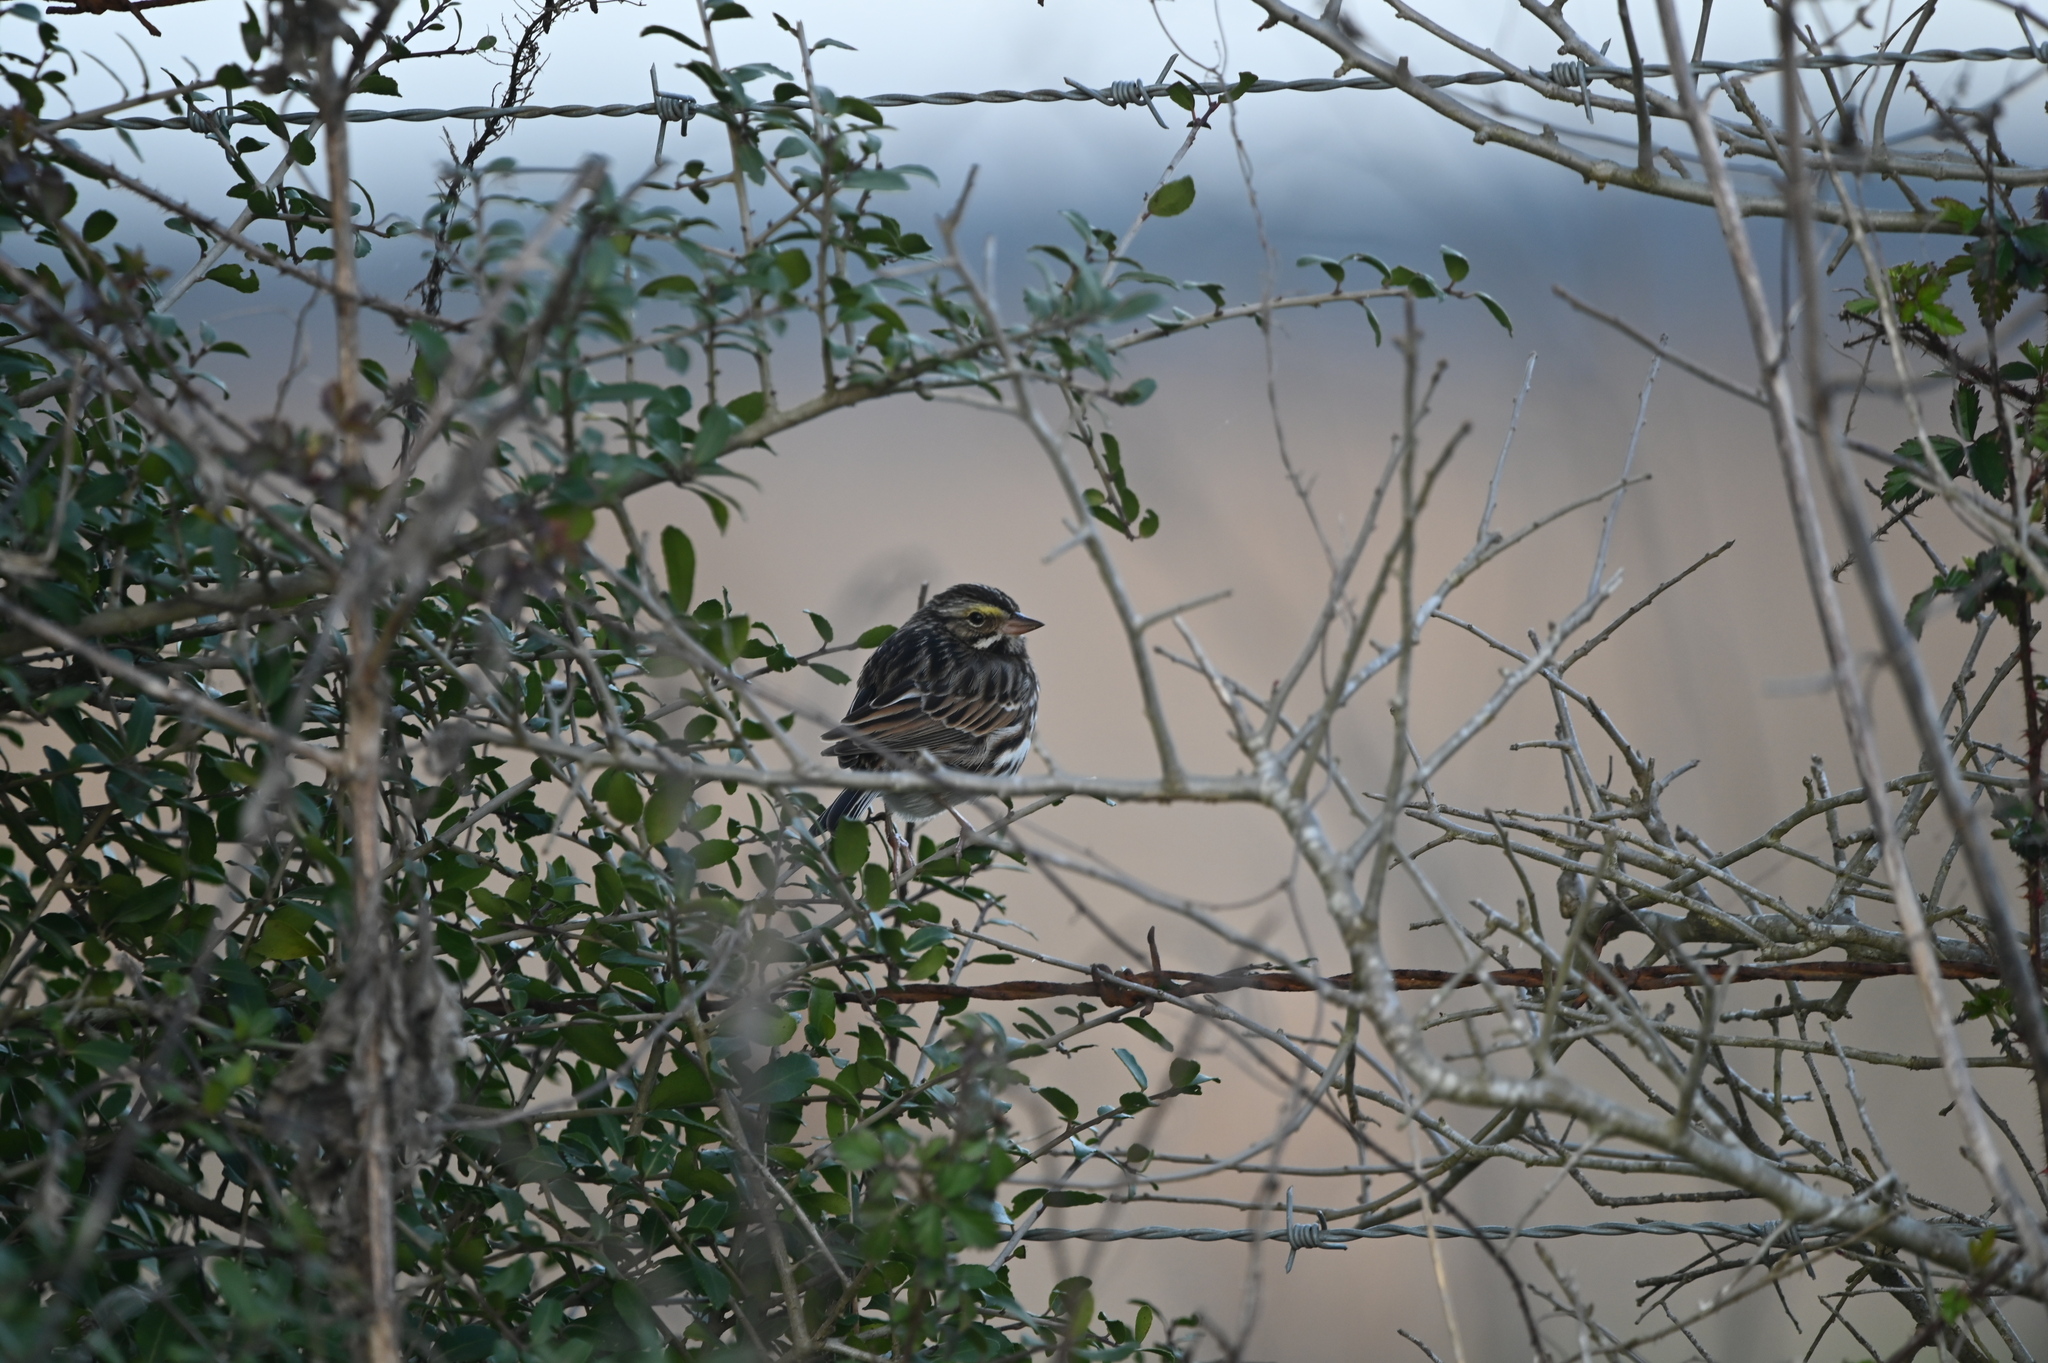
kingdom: Animalia
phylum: Chordata
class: Aves
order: Passeriformes
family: Passerellidae
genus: Passerculus
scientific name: Passerculus sandwichensis
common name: Savannah sparrow
